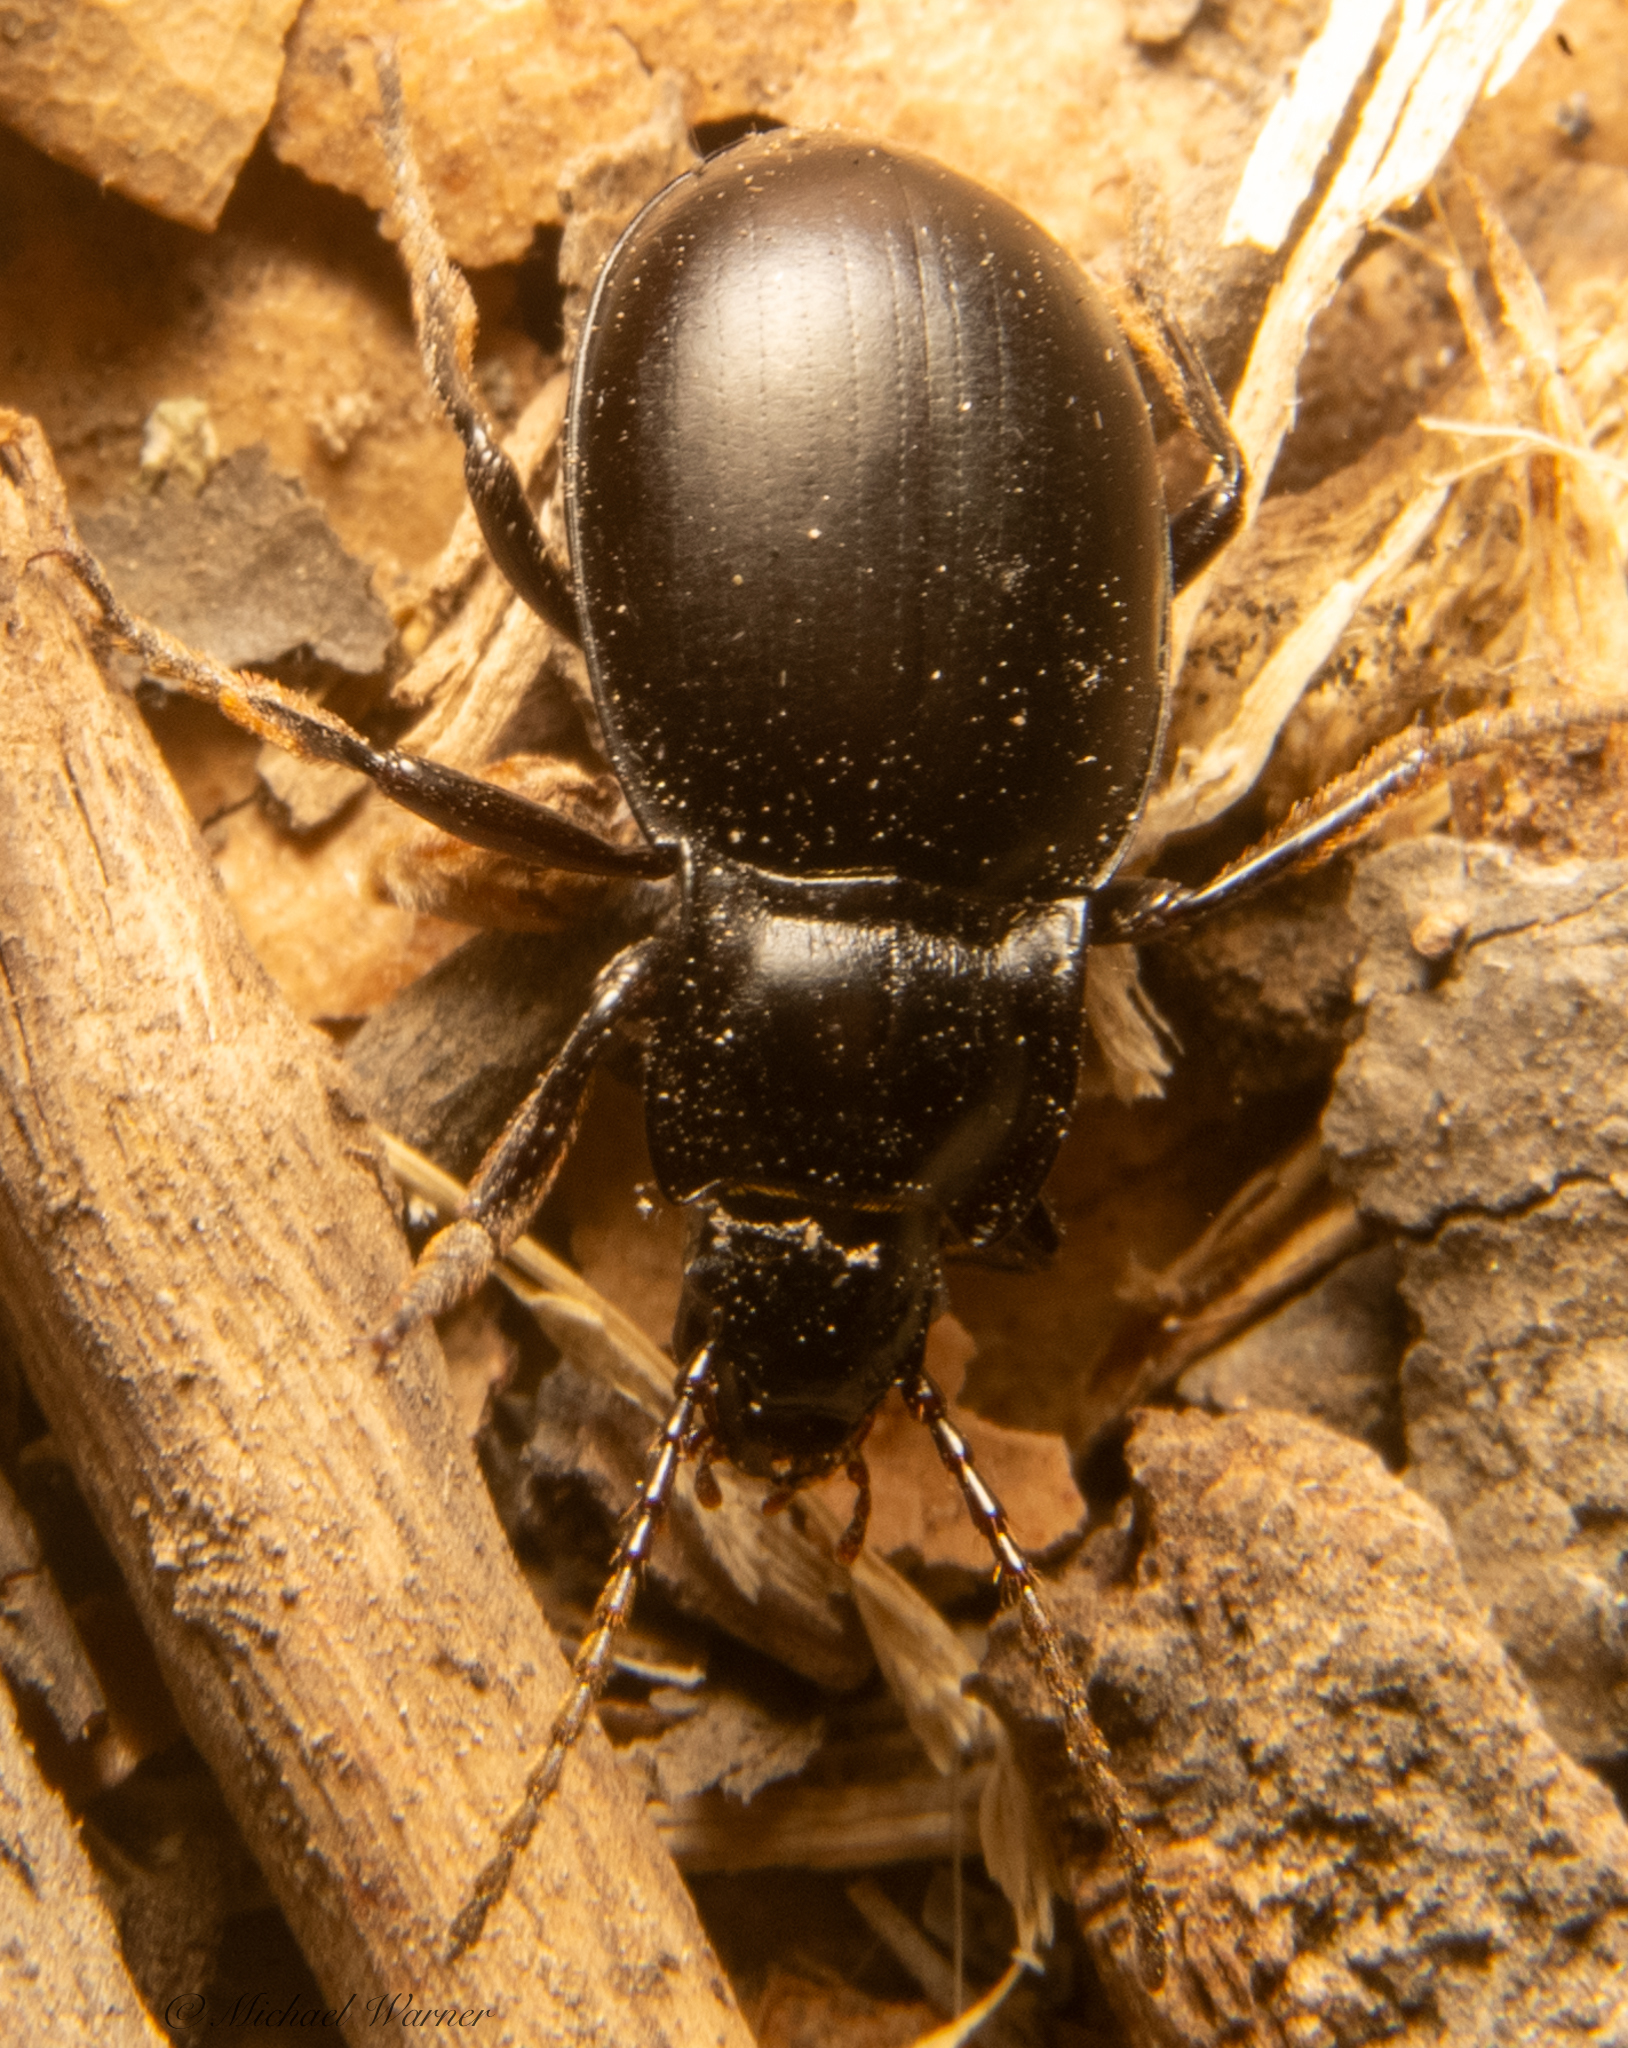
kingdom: Animalia
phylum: Arthropoda
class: Insecta
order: Coleoptera
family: Carabidae
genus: Metrius
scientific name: Metrius contractus
